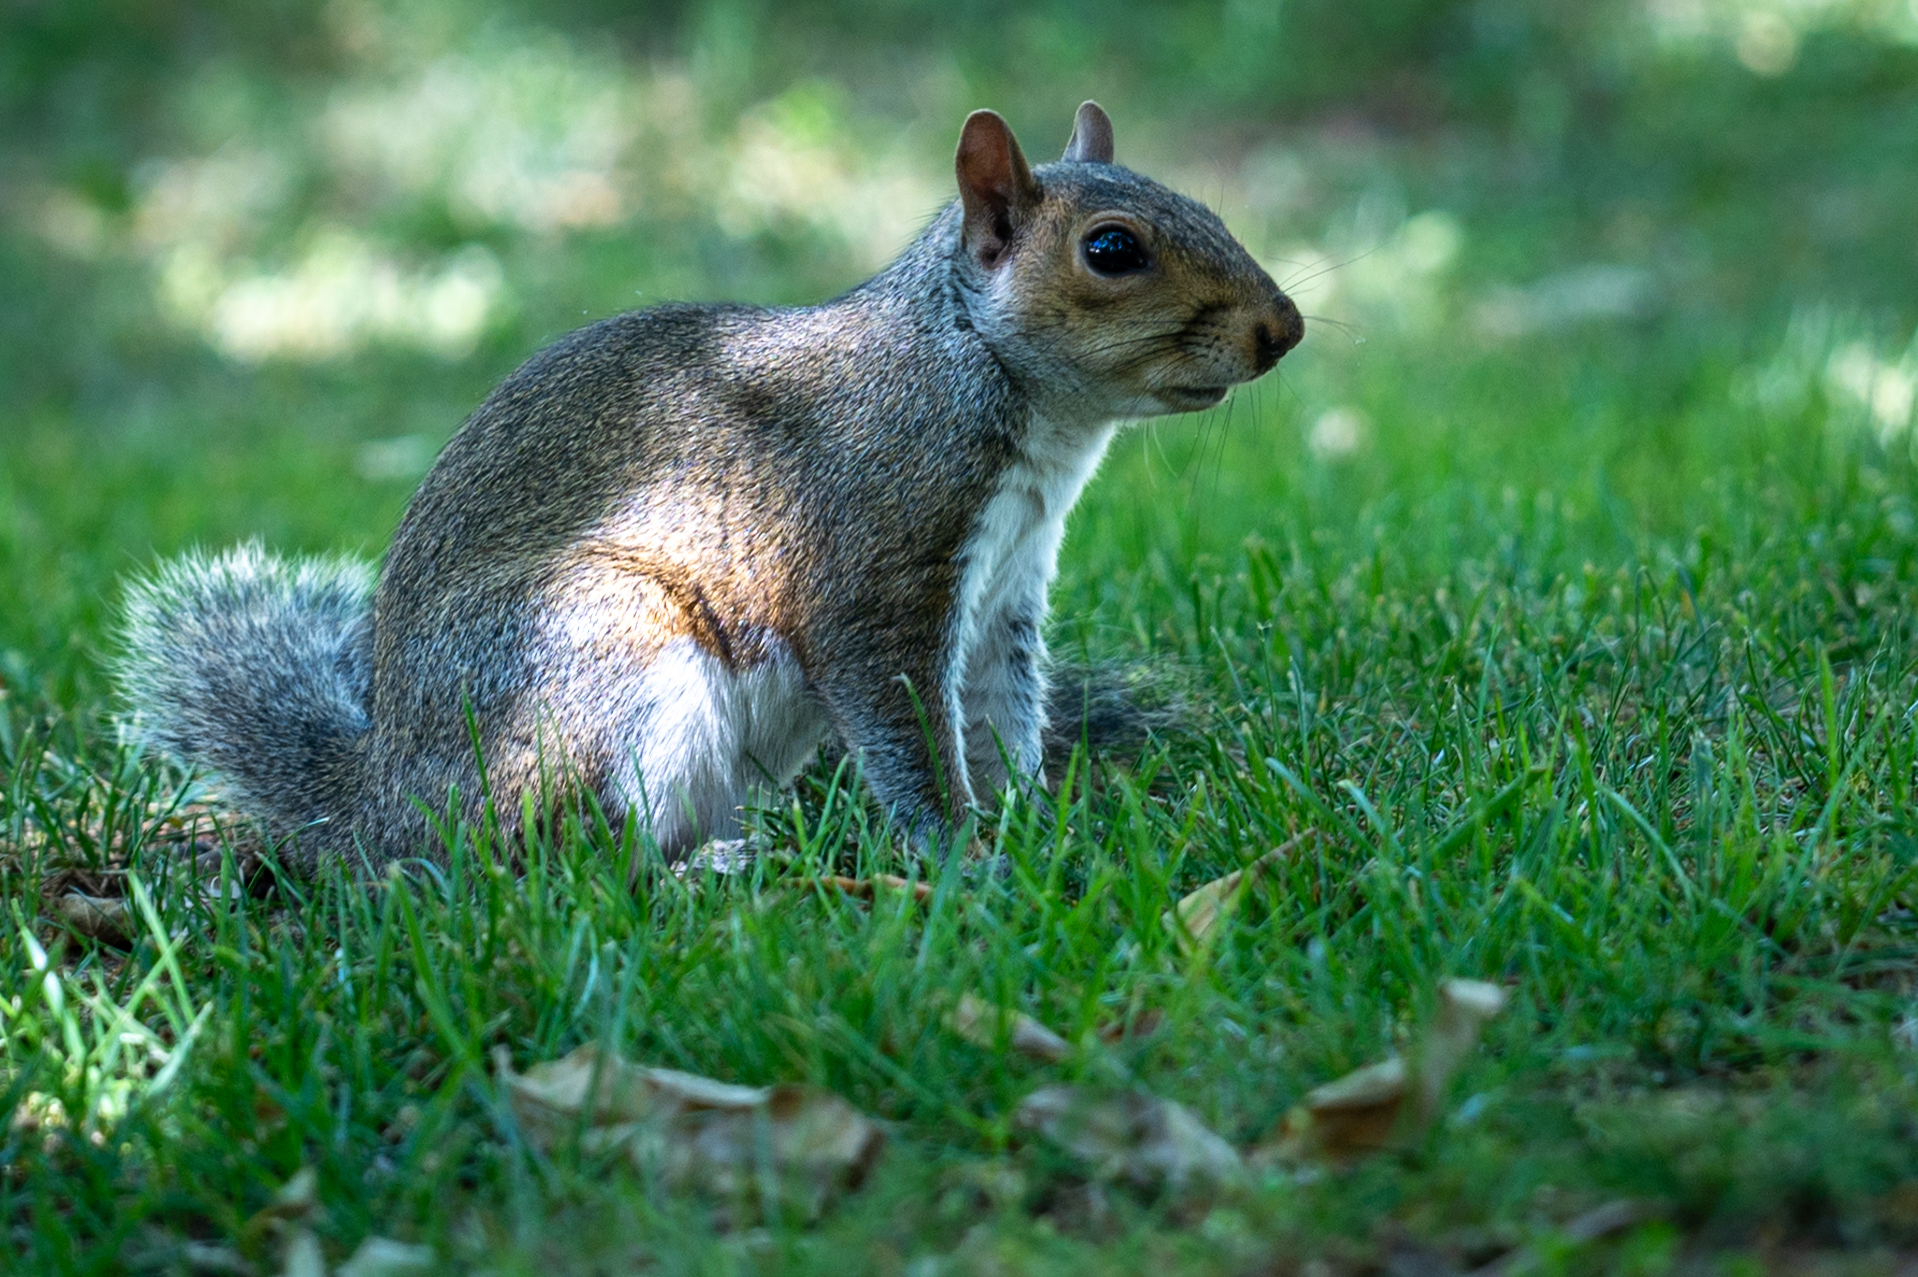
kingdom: Animalia
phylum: Chordata
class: Mammalia
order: Rodentia
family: Sciuridae
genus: Sciurus
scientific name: Sciurus carolinensis
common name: Eastern gray squirrel
